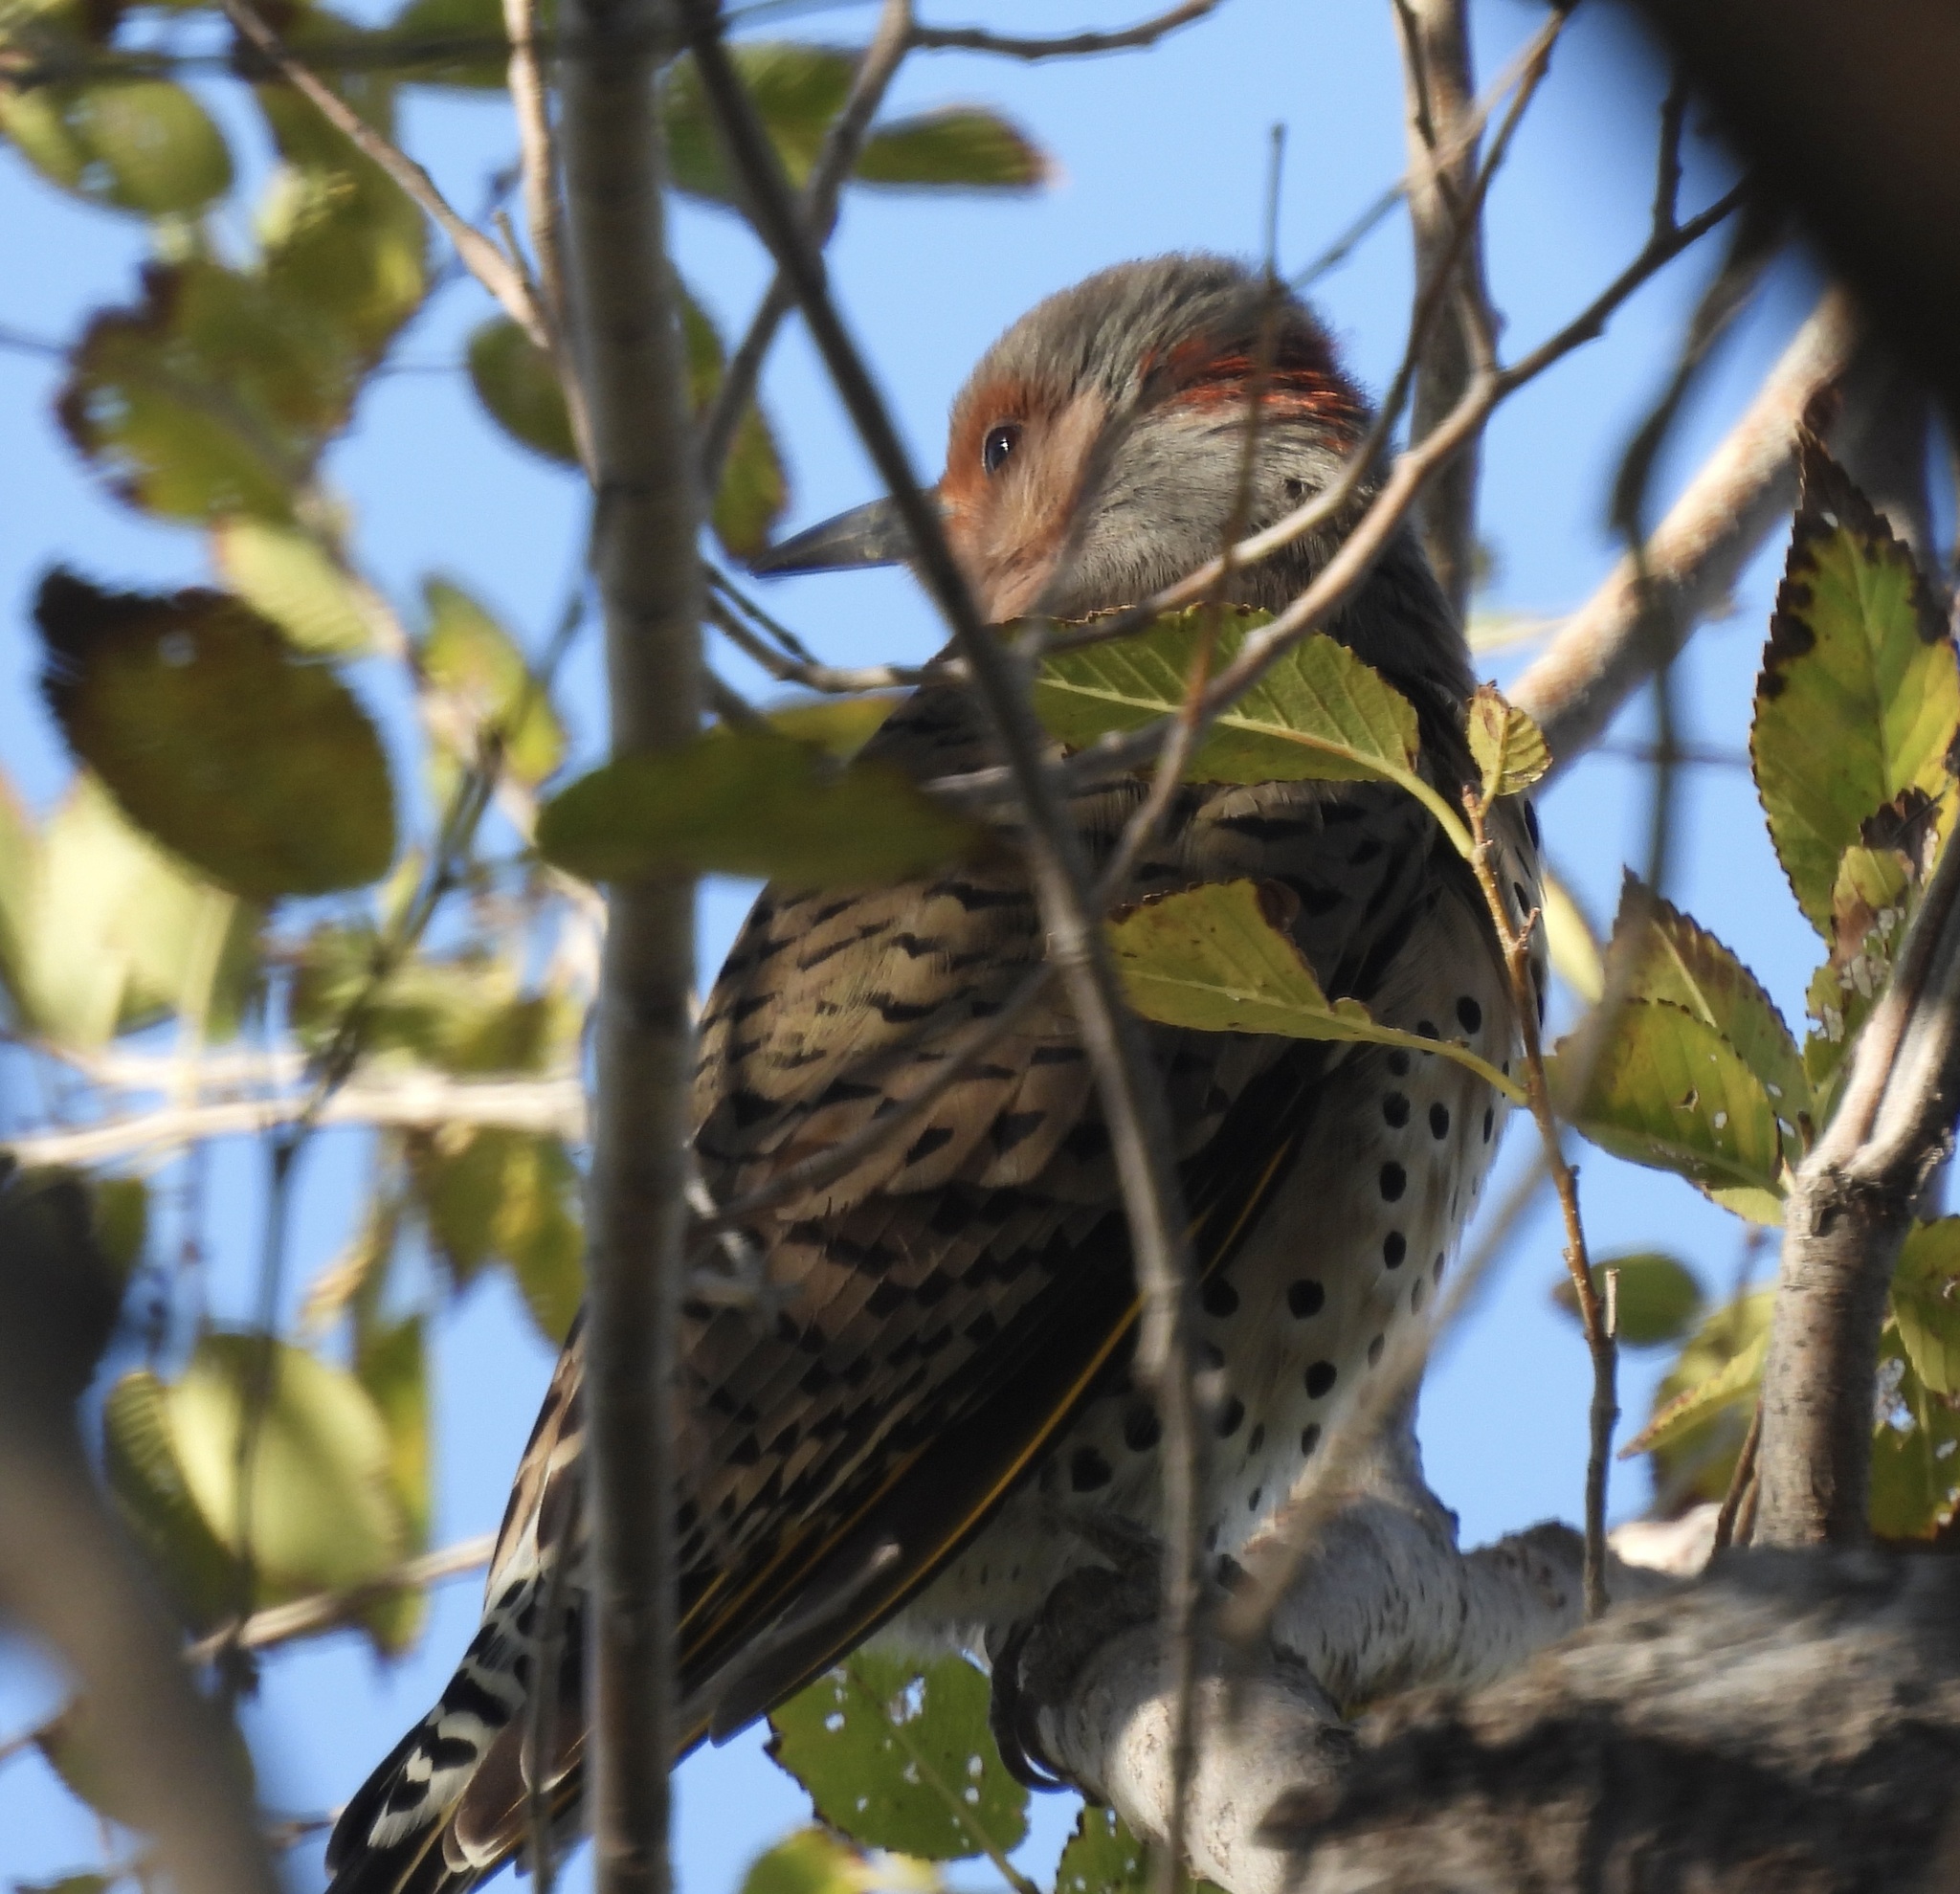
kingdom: Animalia
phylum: Chordata
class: Aves
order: Piciformes
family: Picidae
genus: Colaptes
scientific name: Colaptes auratus
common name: Northern flicker
